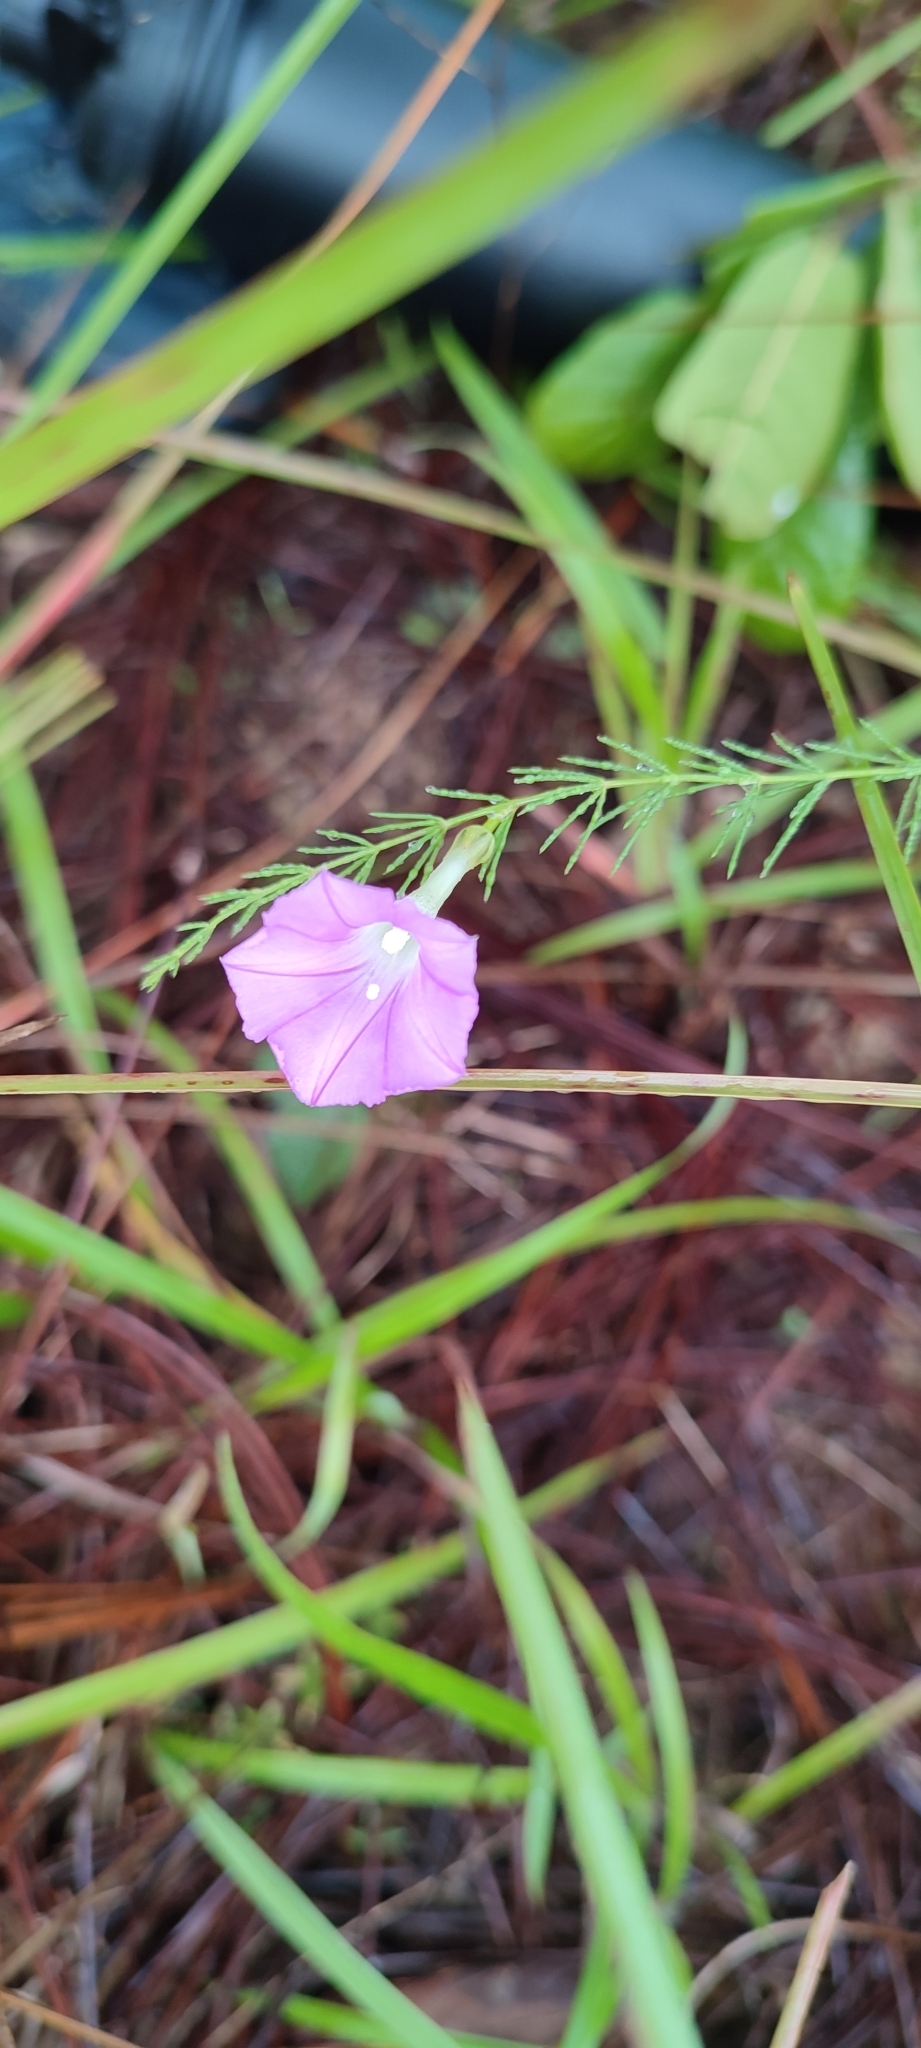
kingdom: Plantae
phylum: Tracheophyta
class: Magnoliopsida
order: Solanales
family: Convolvulaceae
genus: Ipomoea
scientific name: Ipomoea capillacea
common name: Purple morning-glory
